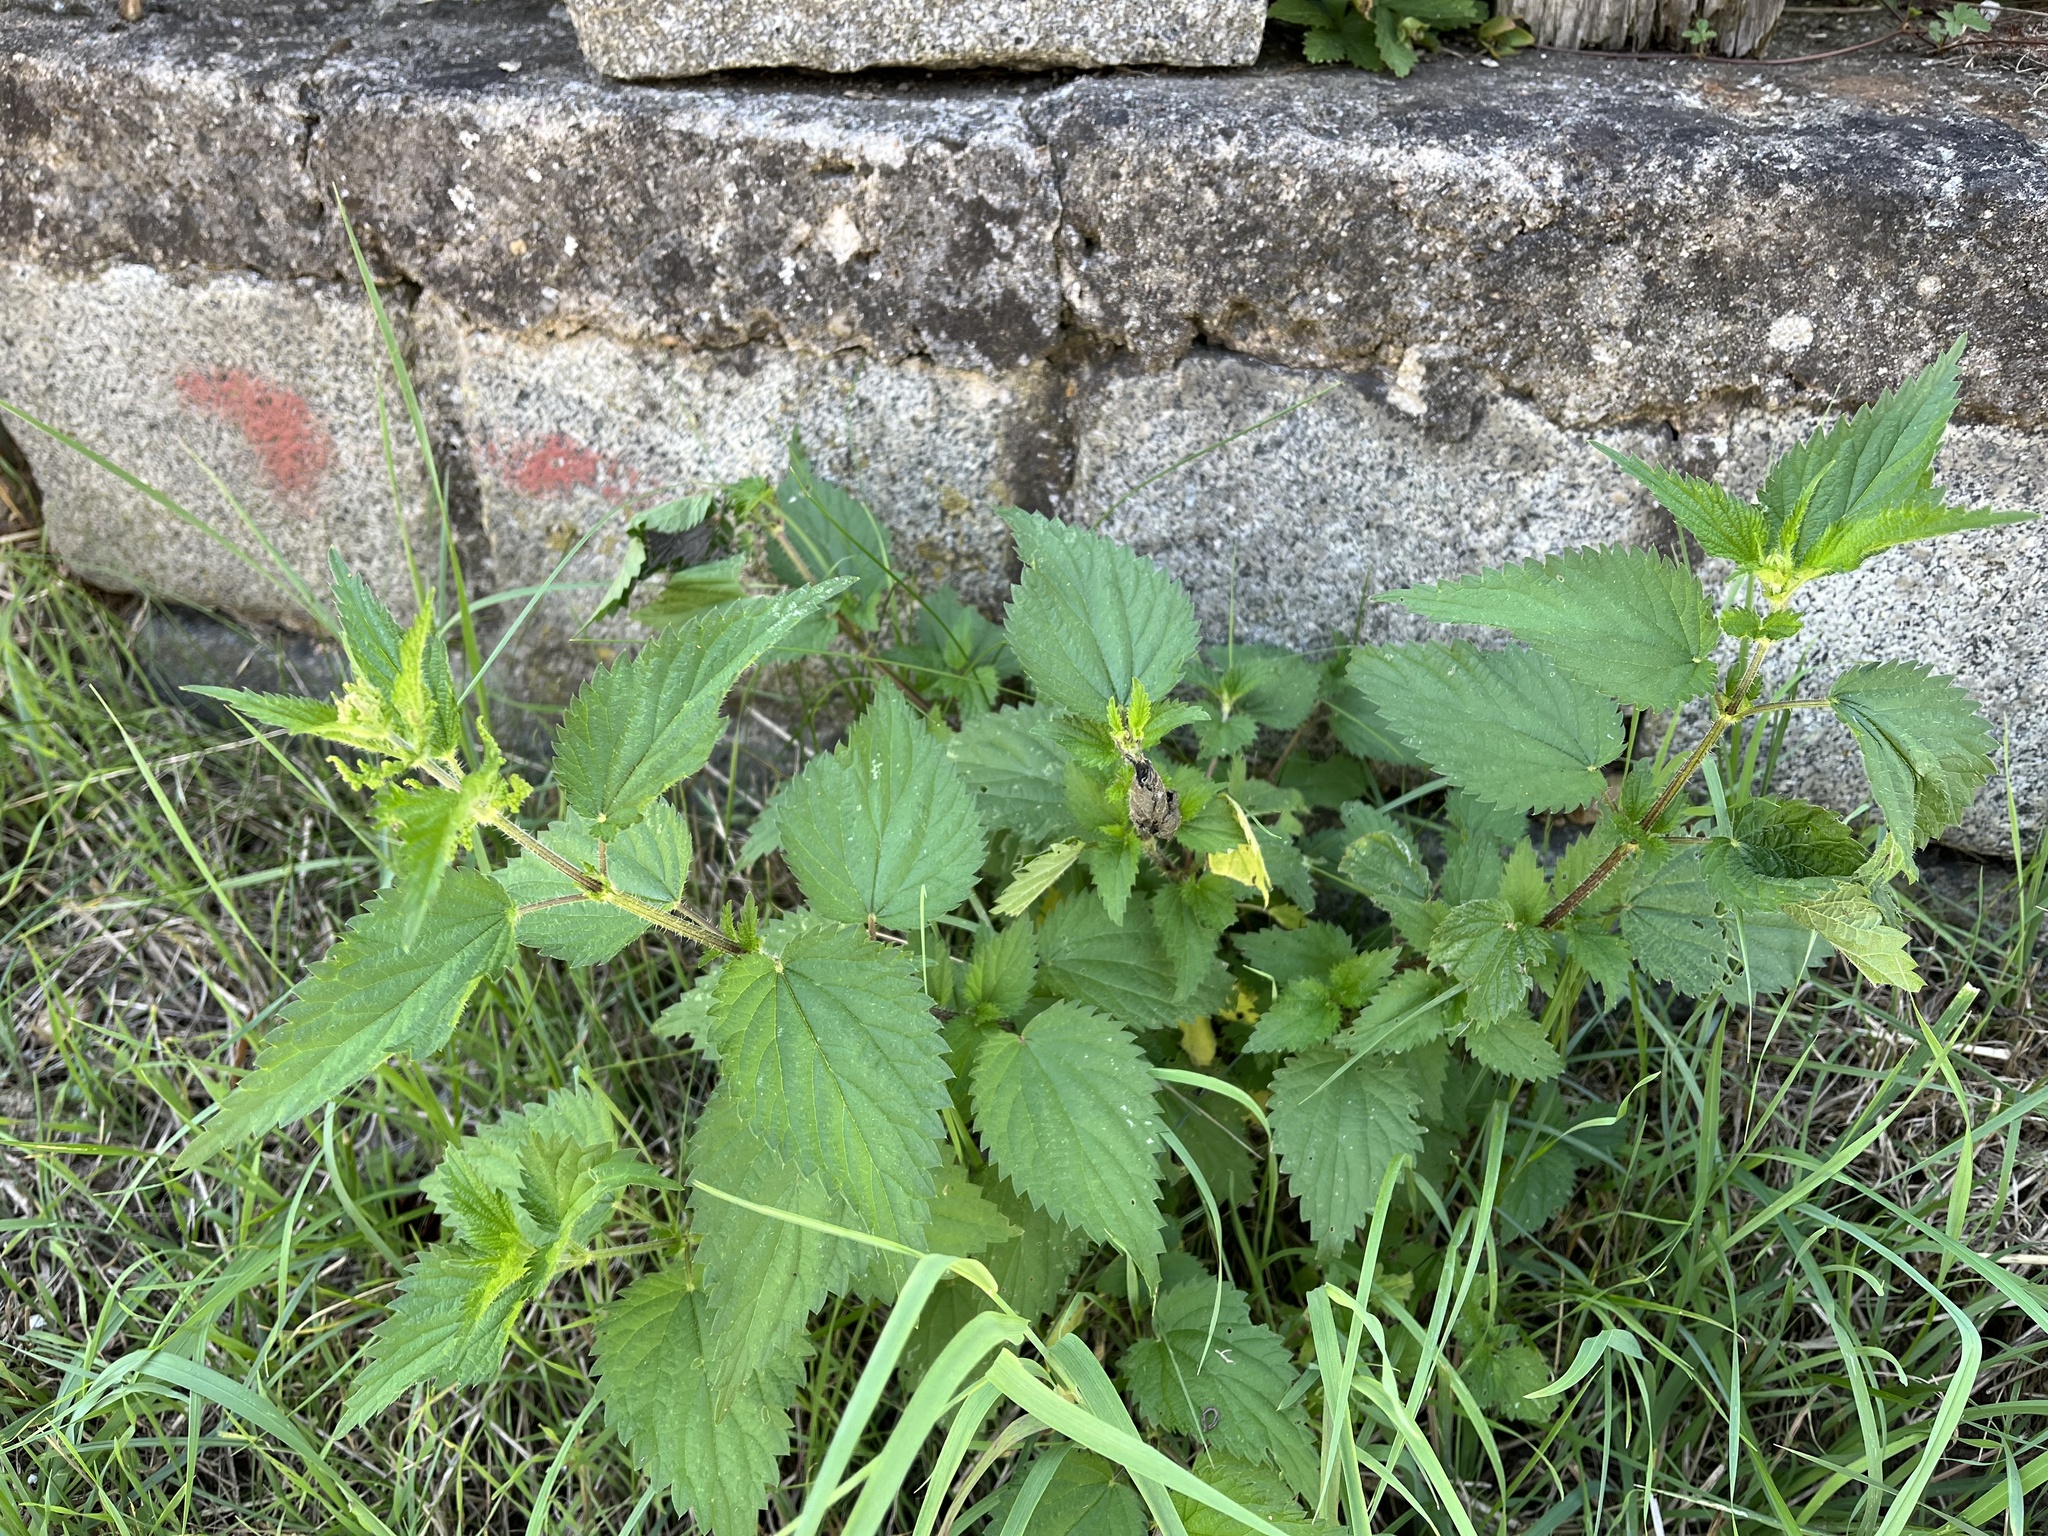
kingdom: Plantae
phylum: Tracheophyta
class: Magnoliopsida
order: Rosales
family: Urticaceae
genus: Urtica
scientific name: Urtica dioica
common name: Common nettle
